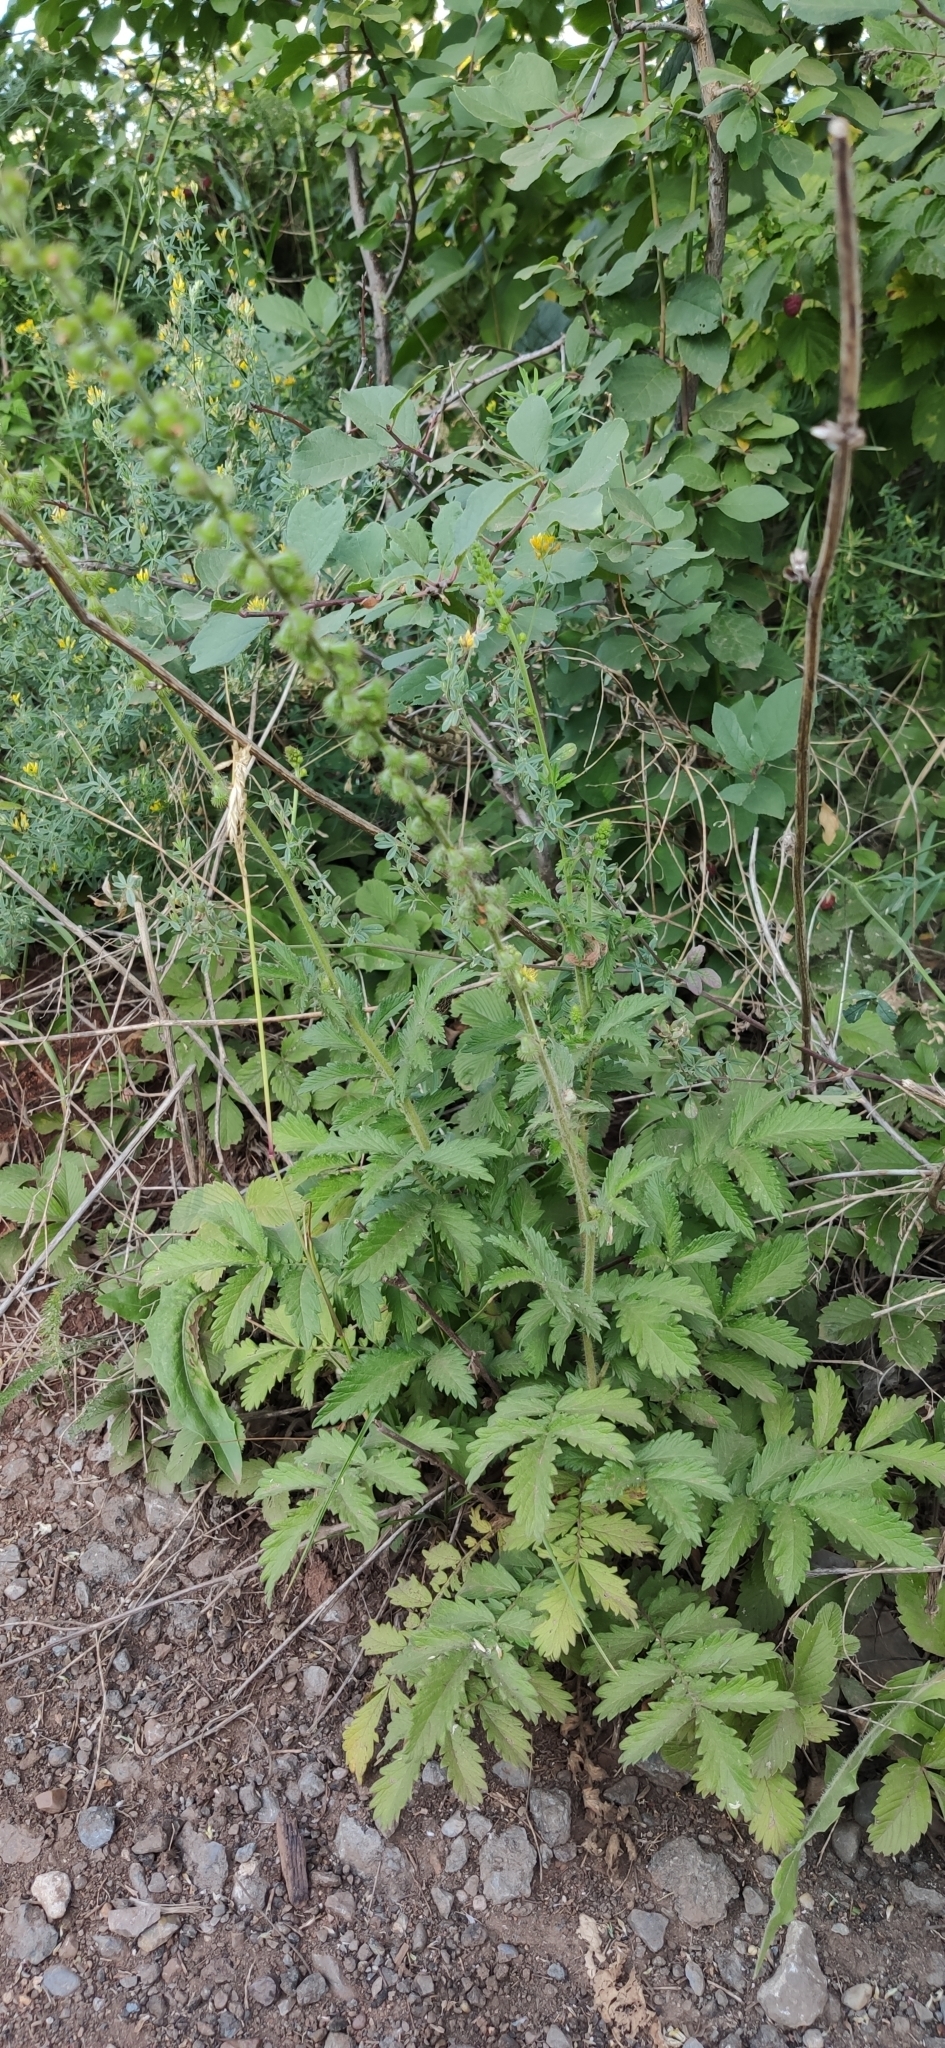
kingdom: Plantae
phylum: Tracheophyta
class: Magnoliopsida
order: Rosales
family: Rosaceae
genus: Agrimonia
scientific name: Agrimonia eupatoria
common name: Agrimony
